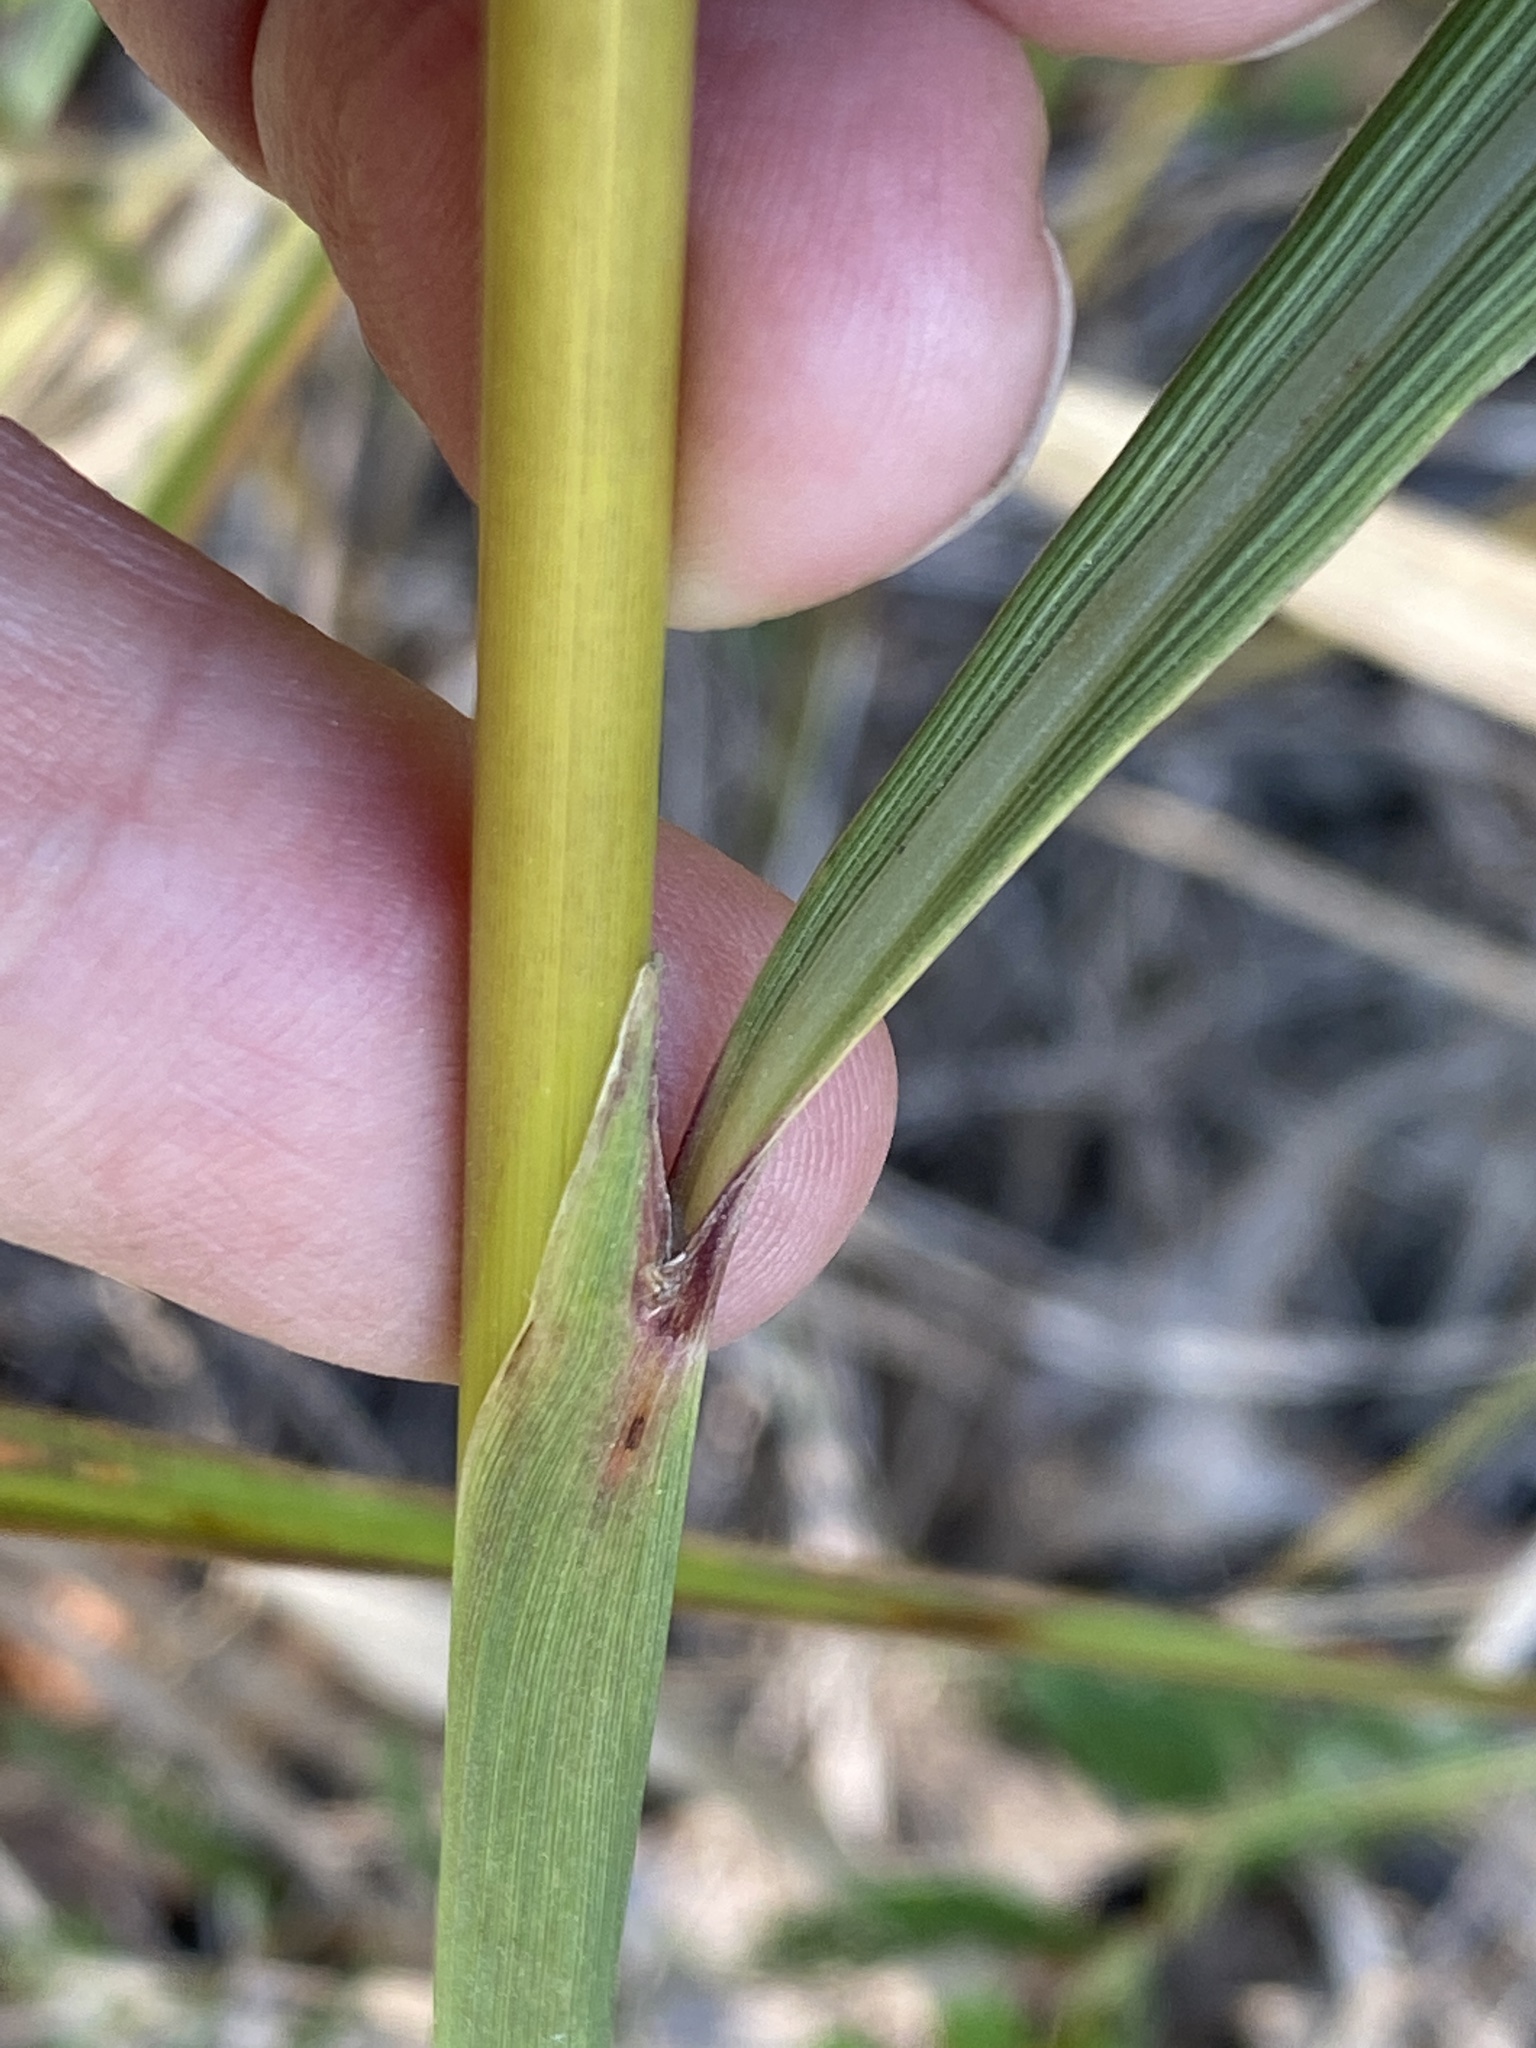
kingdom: Plantae
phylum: Tracheophyta
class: Liliopsida
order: Poales
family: Poaceae
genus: Sorghastrum
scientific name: Sorghastrum nutans
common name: Indian grass
